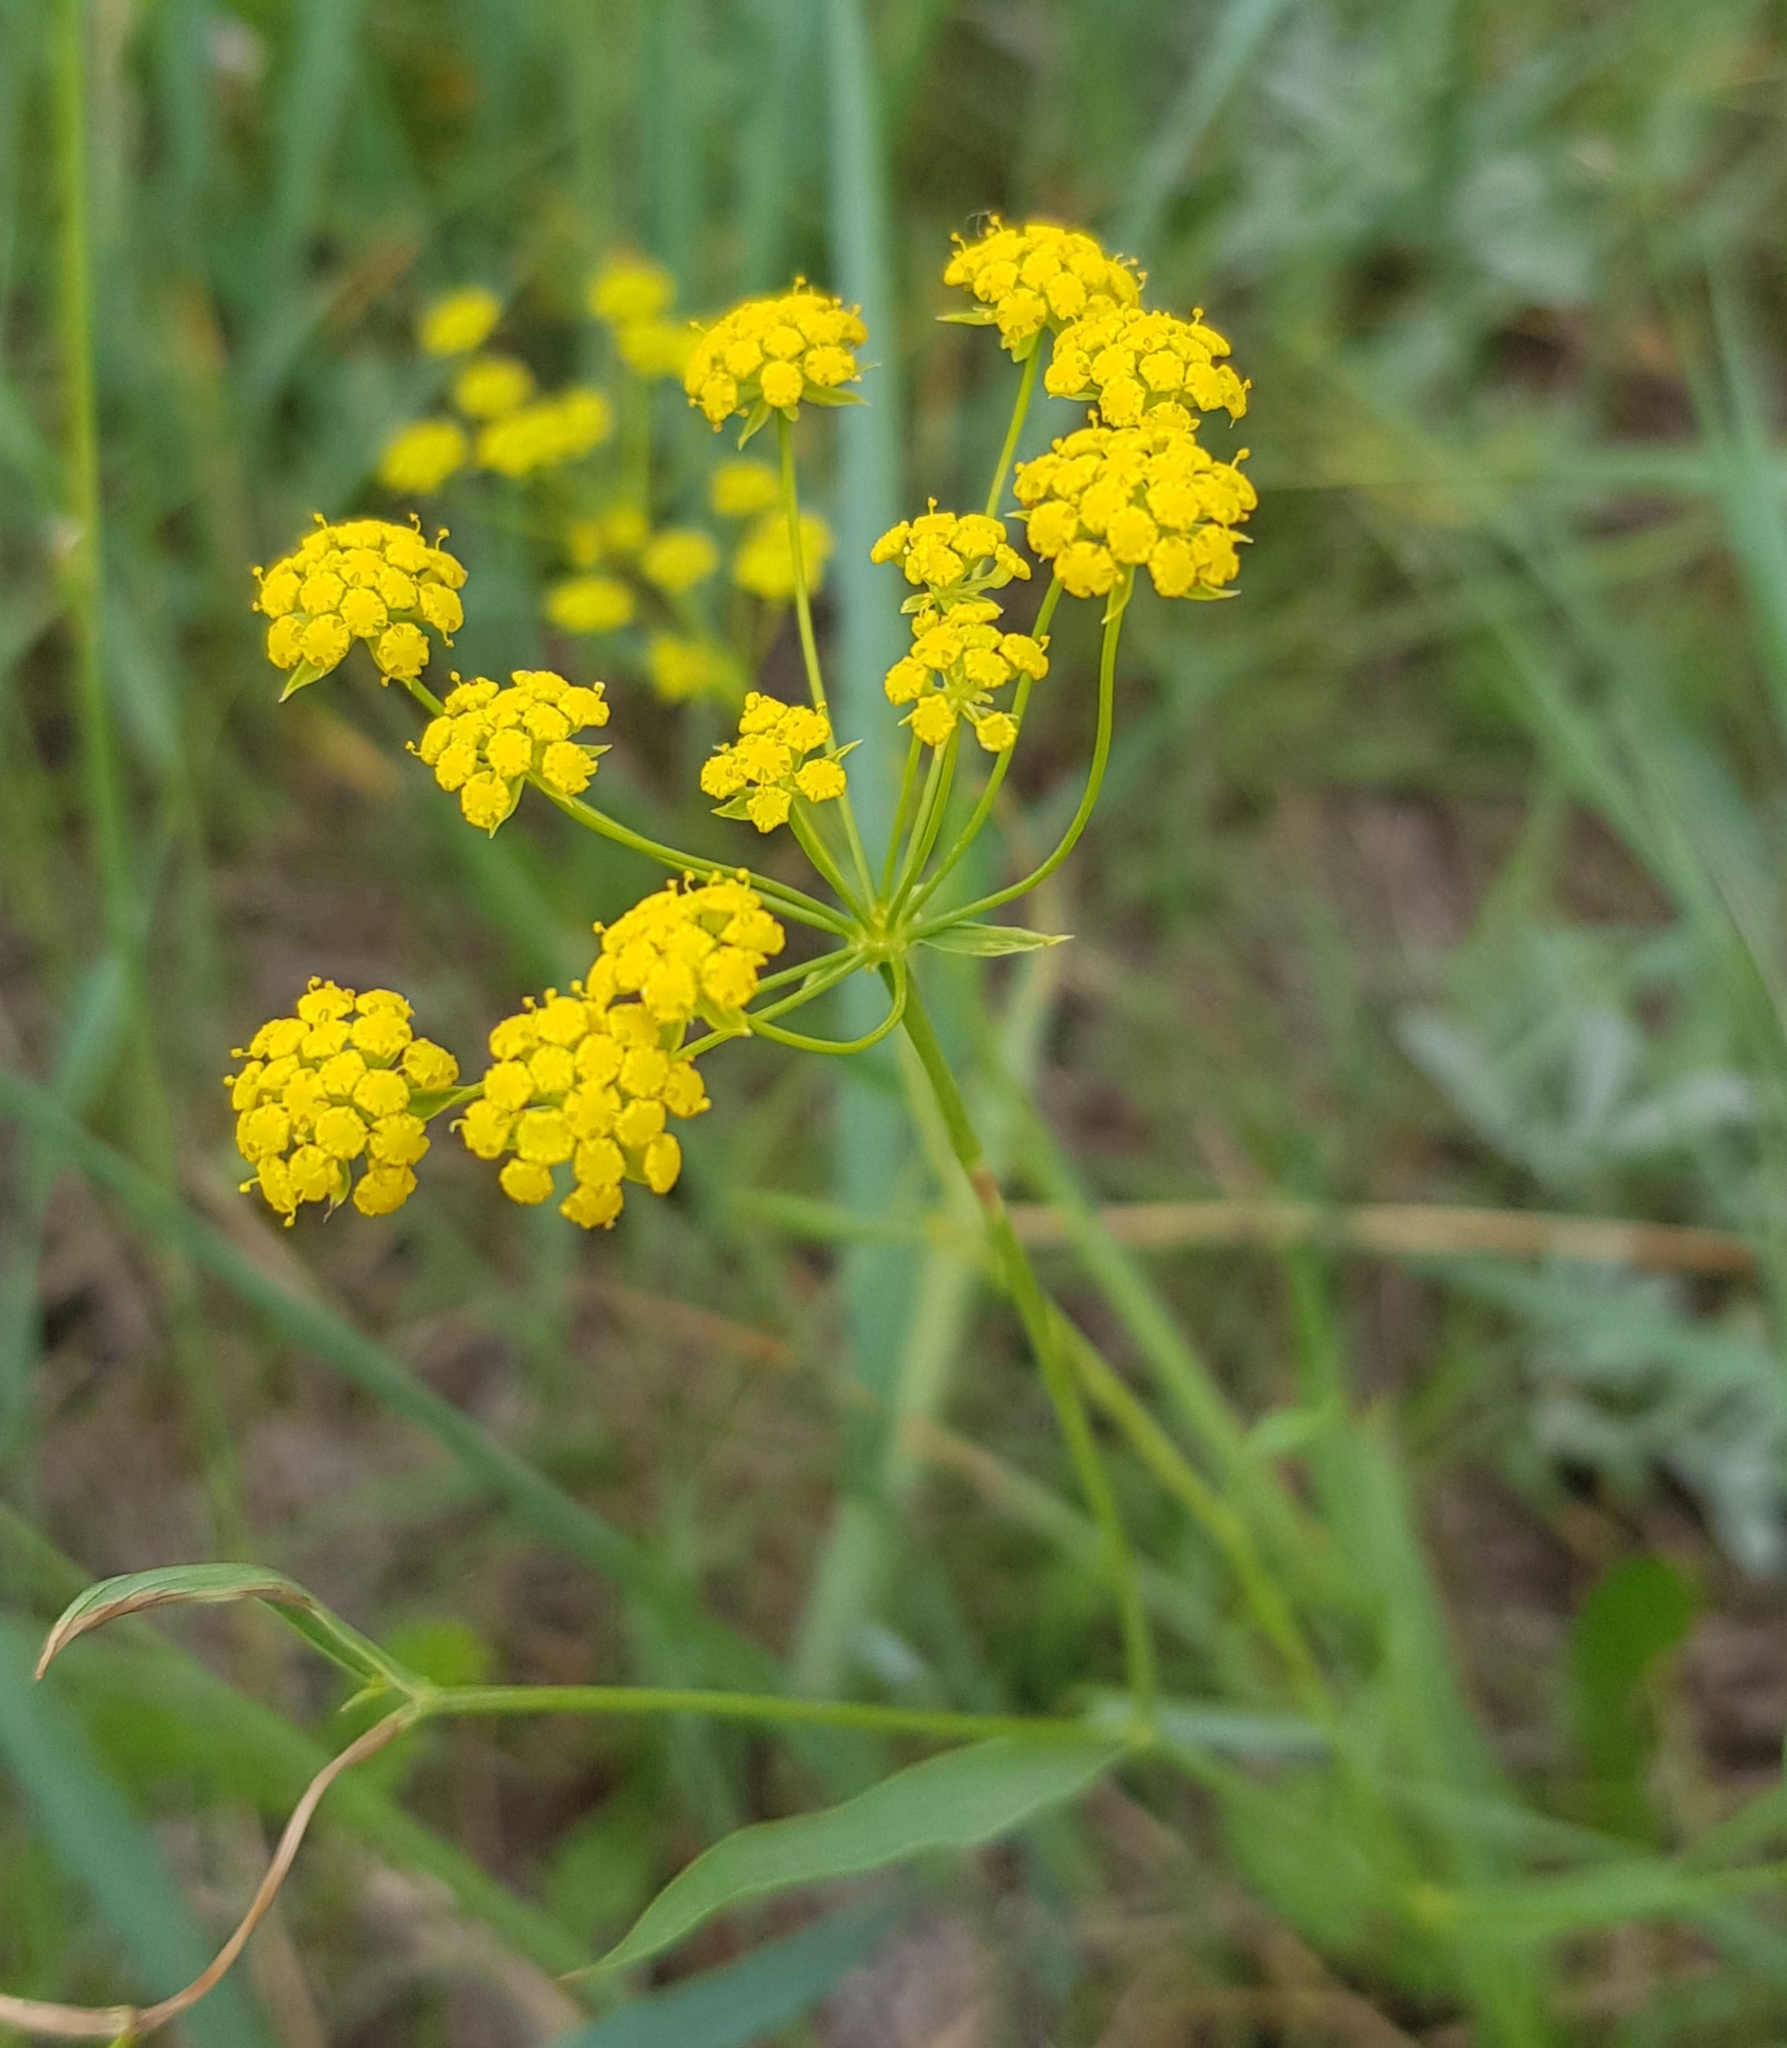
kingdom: Plantae
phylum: Tracheophyta
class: Magnoliopsida
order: Apiales
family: Apiaceae
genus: Bupleurum
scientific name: Bupleurum scorzonerifolium
